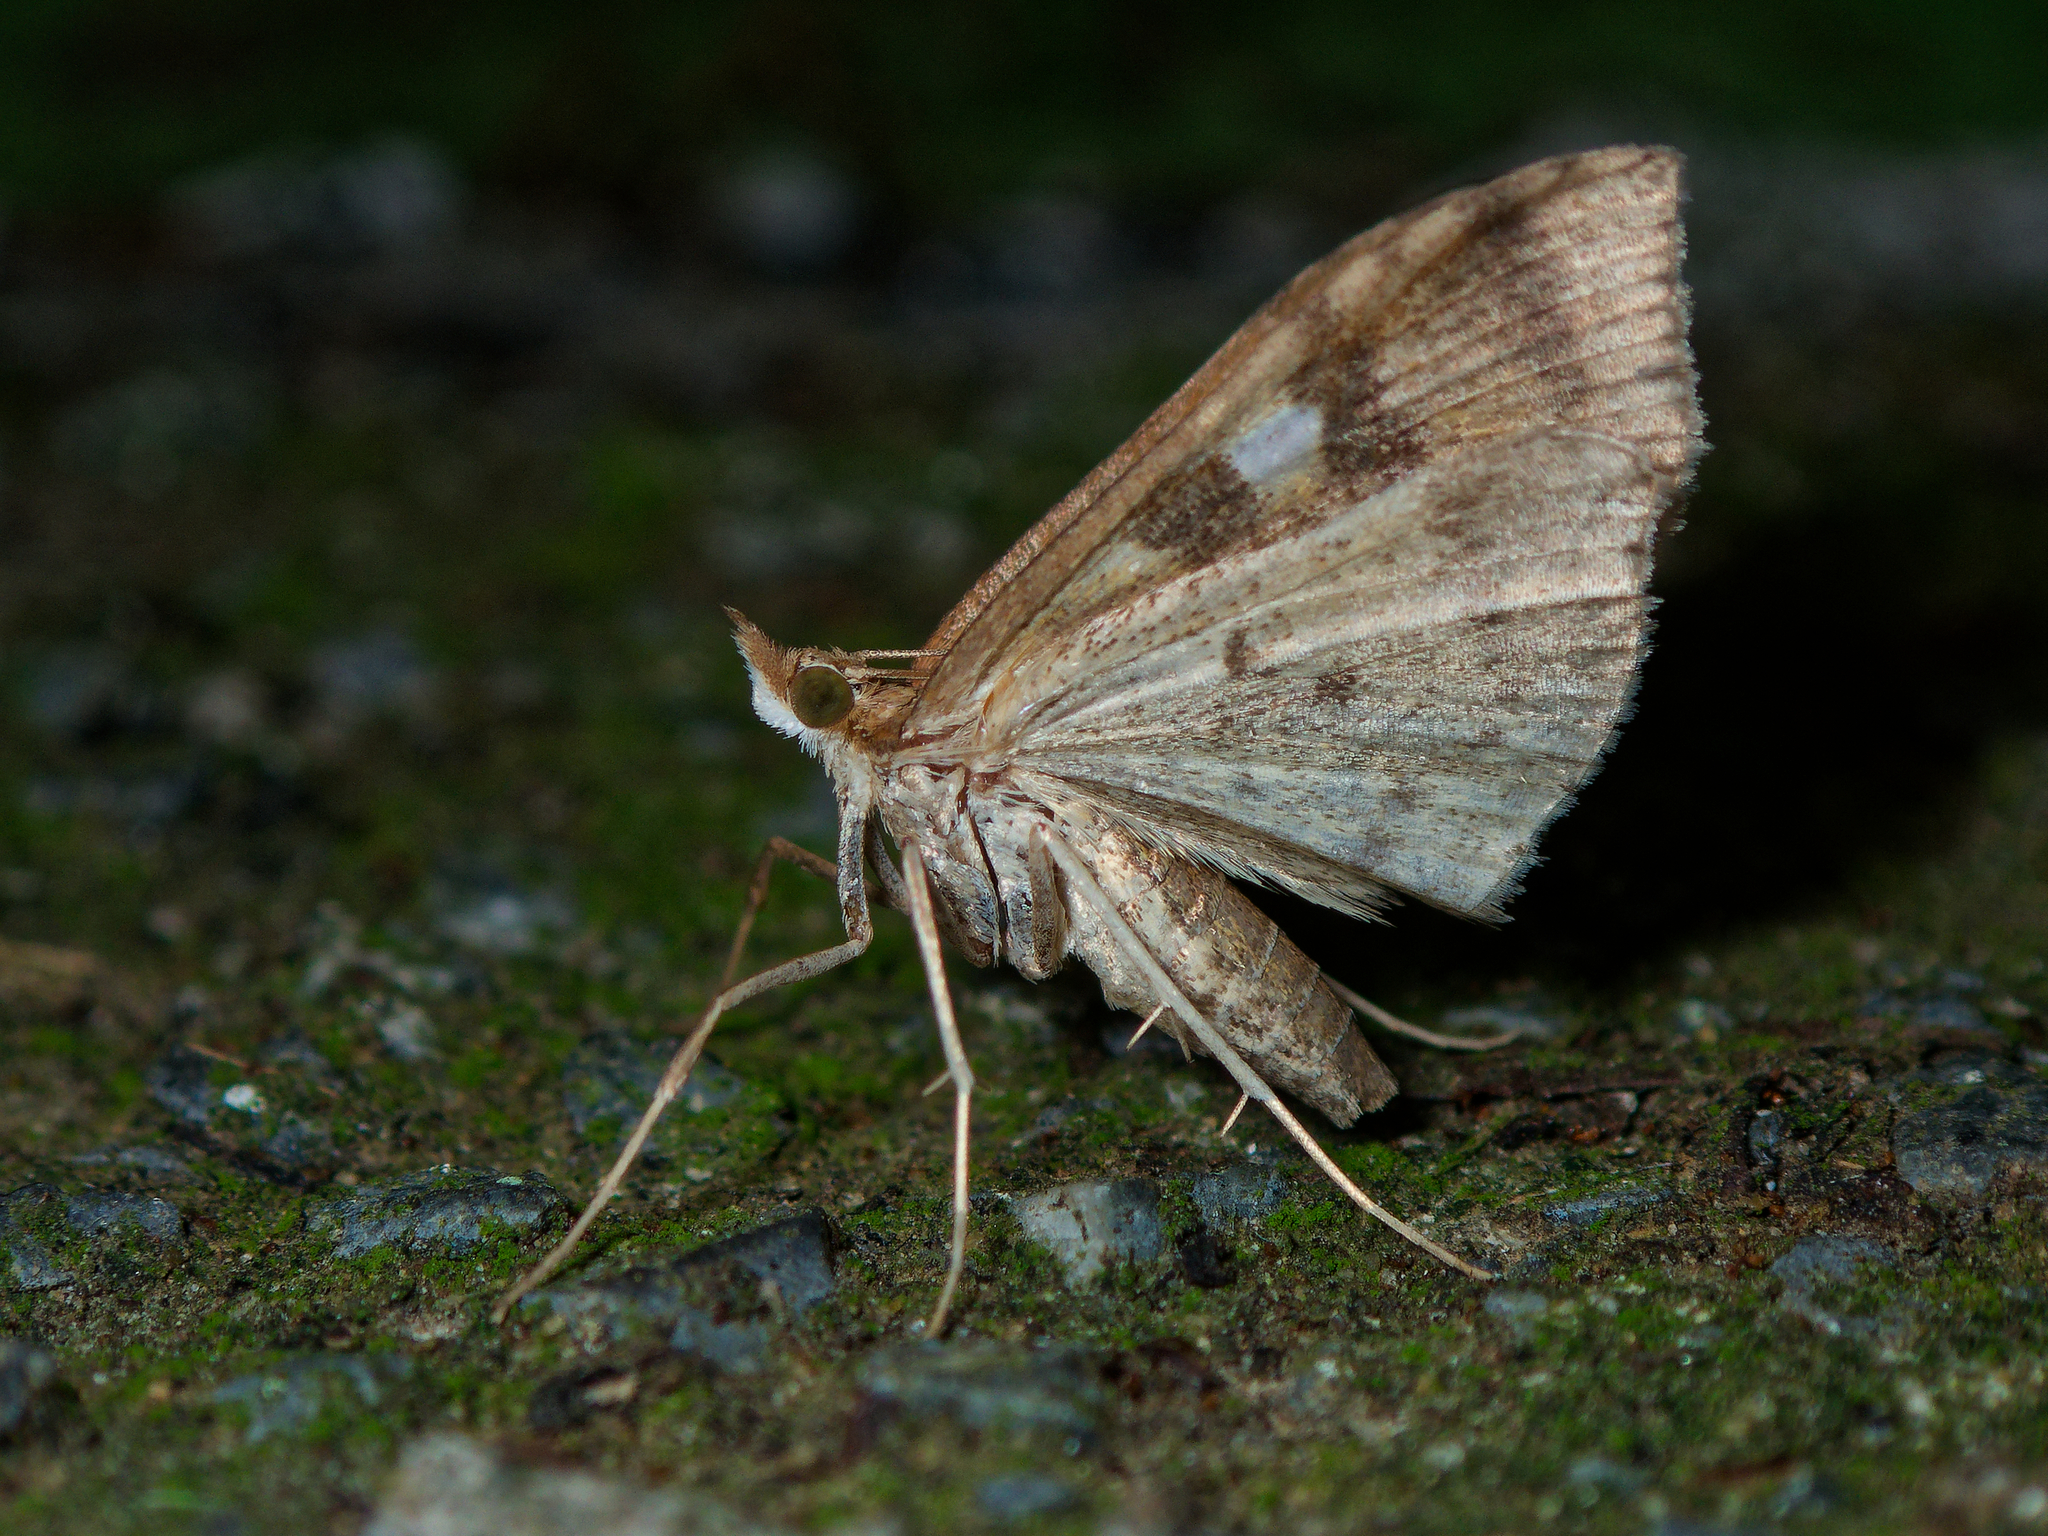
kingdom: Animalia
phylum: Arthropoda
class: Insecta
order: Lepidoptera
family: Crambidae
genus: Udea
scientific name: Udea Mnesictena marmarina
